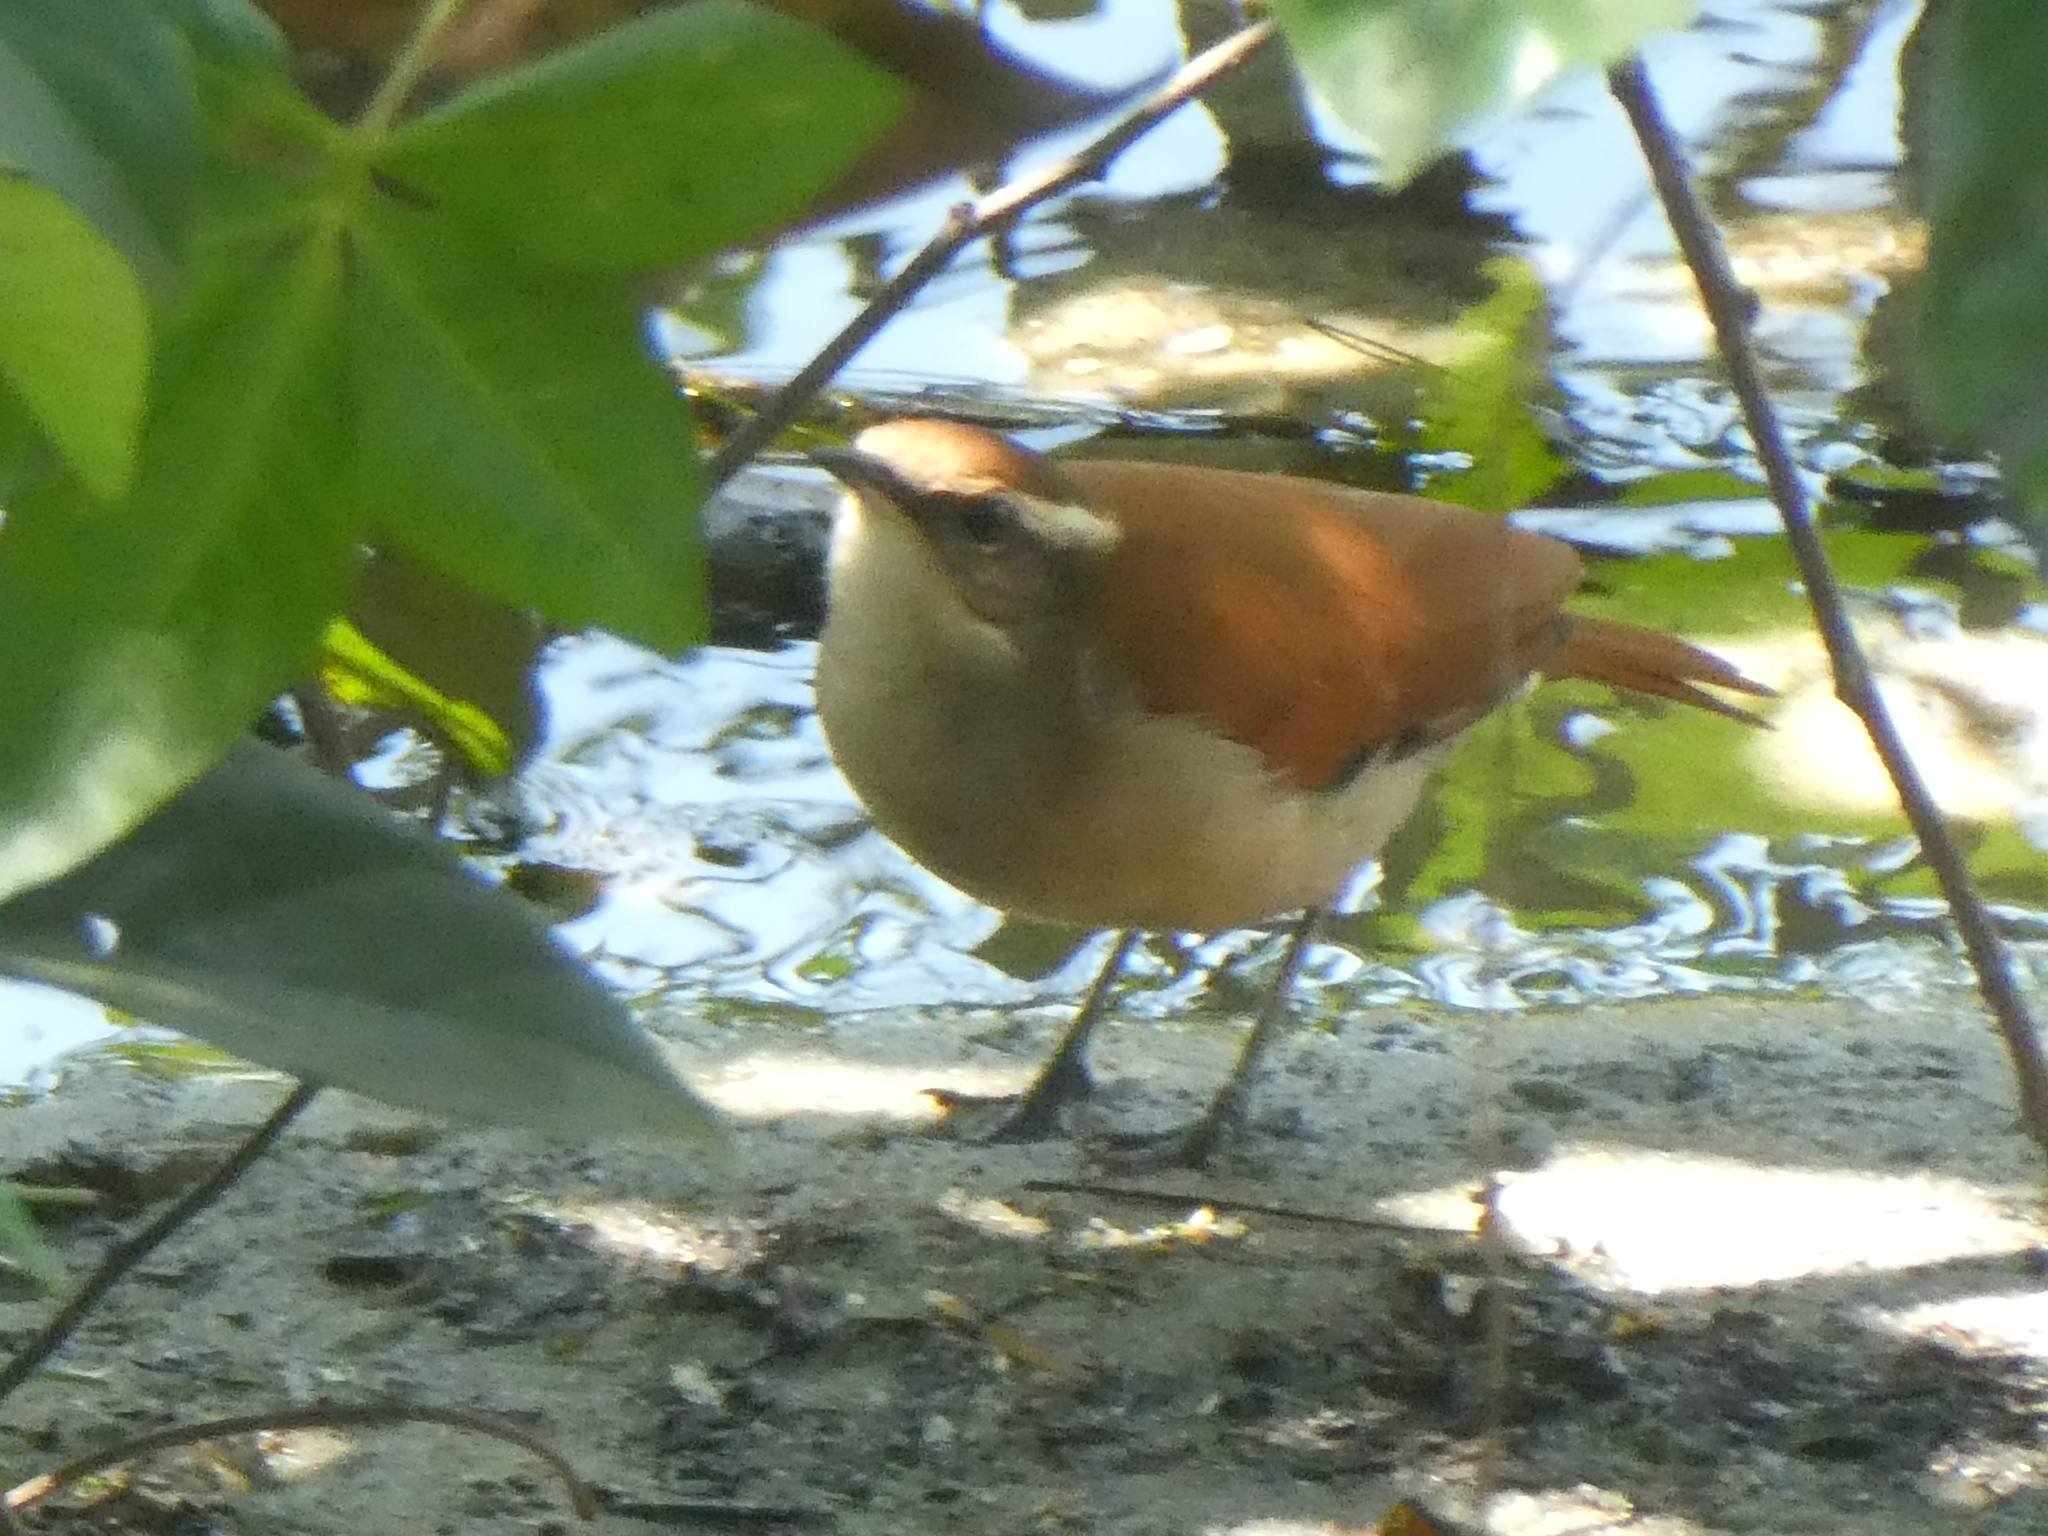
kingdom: Animalia
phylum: Chordata
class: Aves
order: Passeriformes
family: Furnariidae
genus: Furnarius
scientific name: Furnarius figulus
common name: Band-tailed hornero
